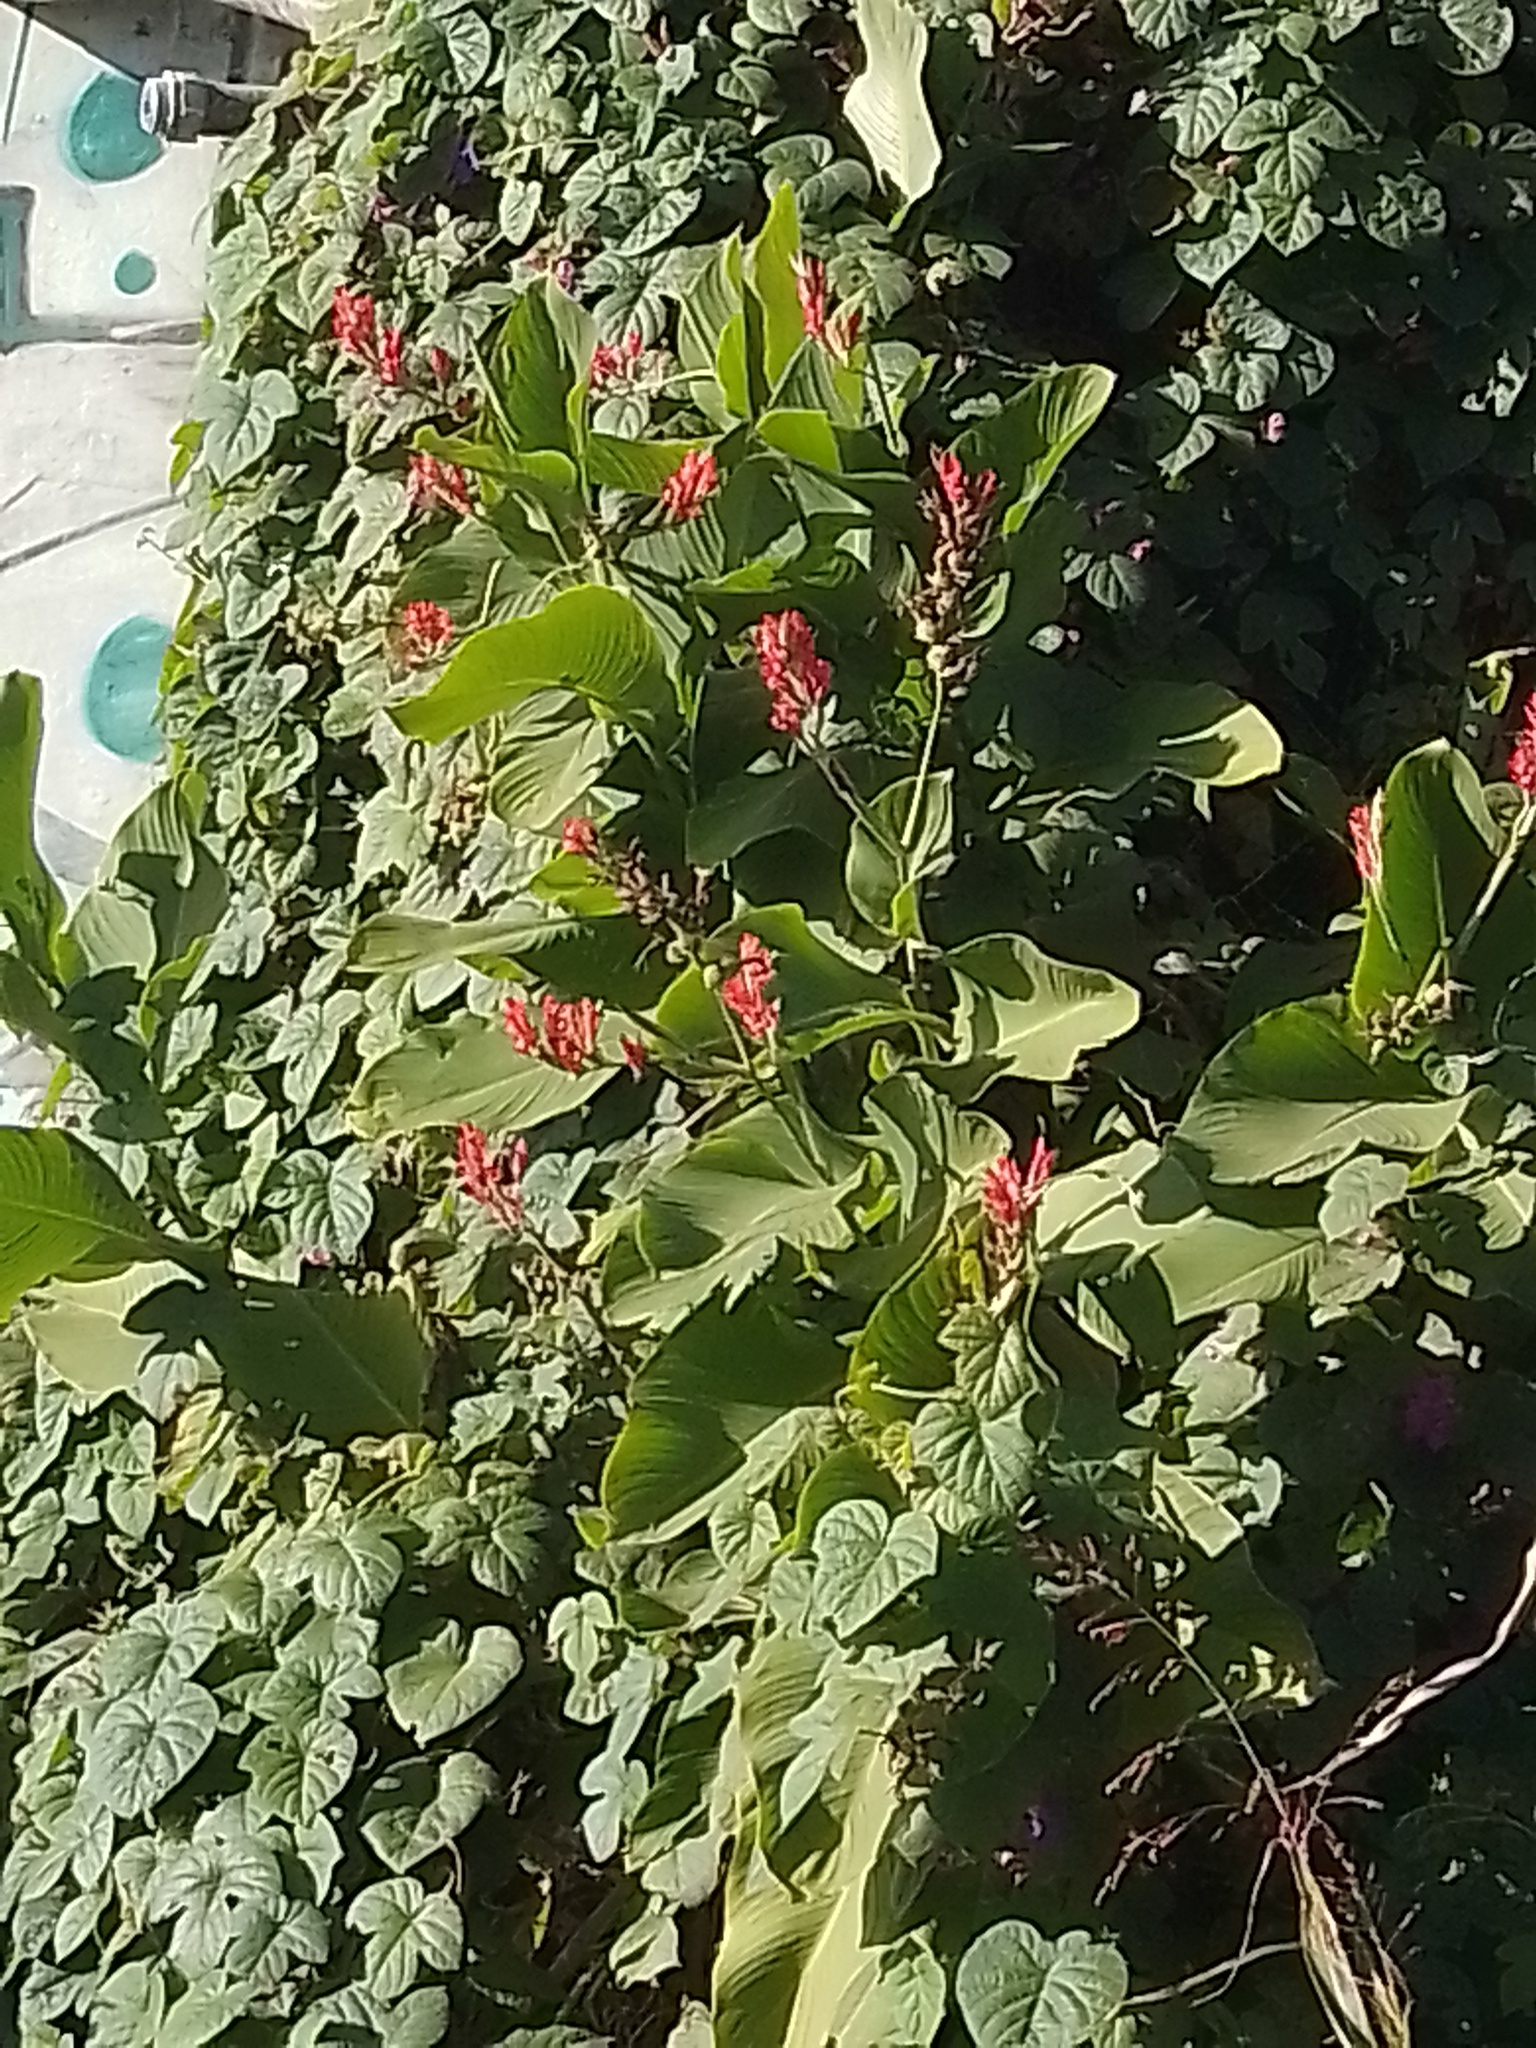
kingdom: Plantae
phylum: Tracheophyta
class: Liliopsida
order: Zingiberales
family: Cannaceae
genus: Canna
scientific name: Canna indica
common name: Indian shot
